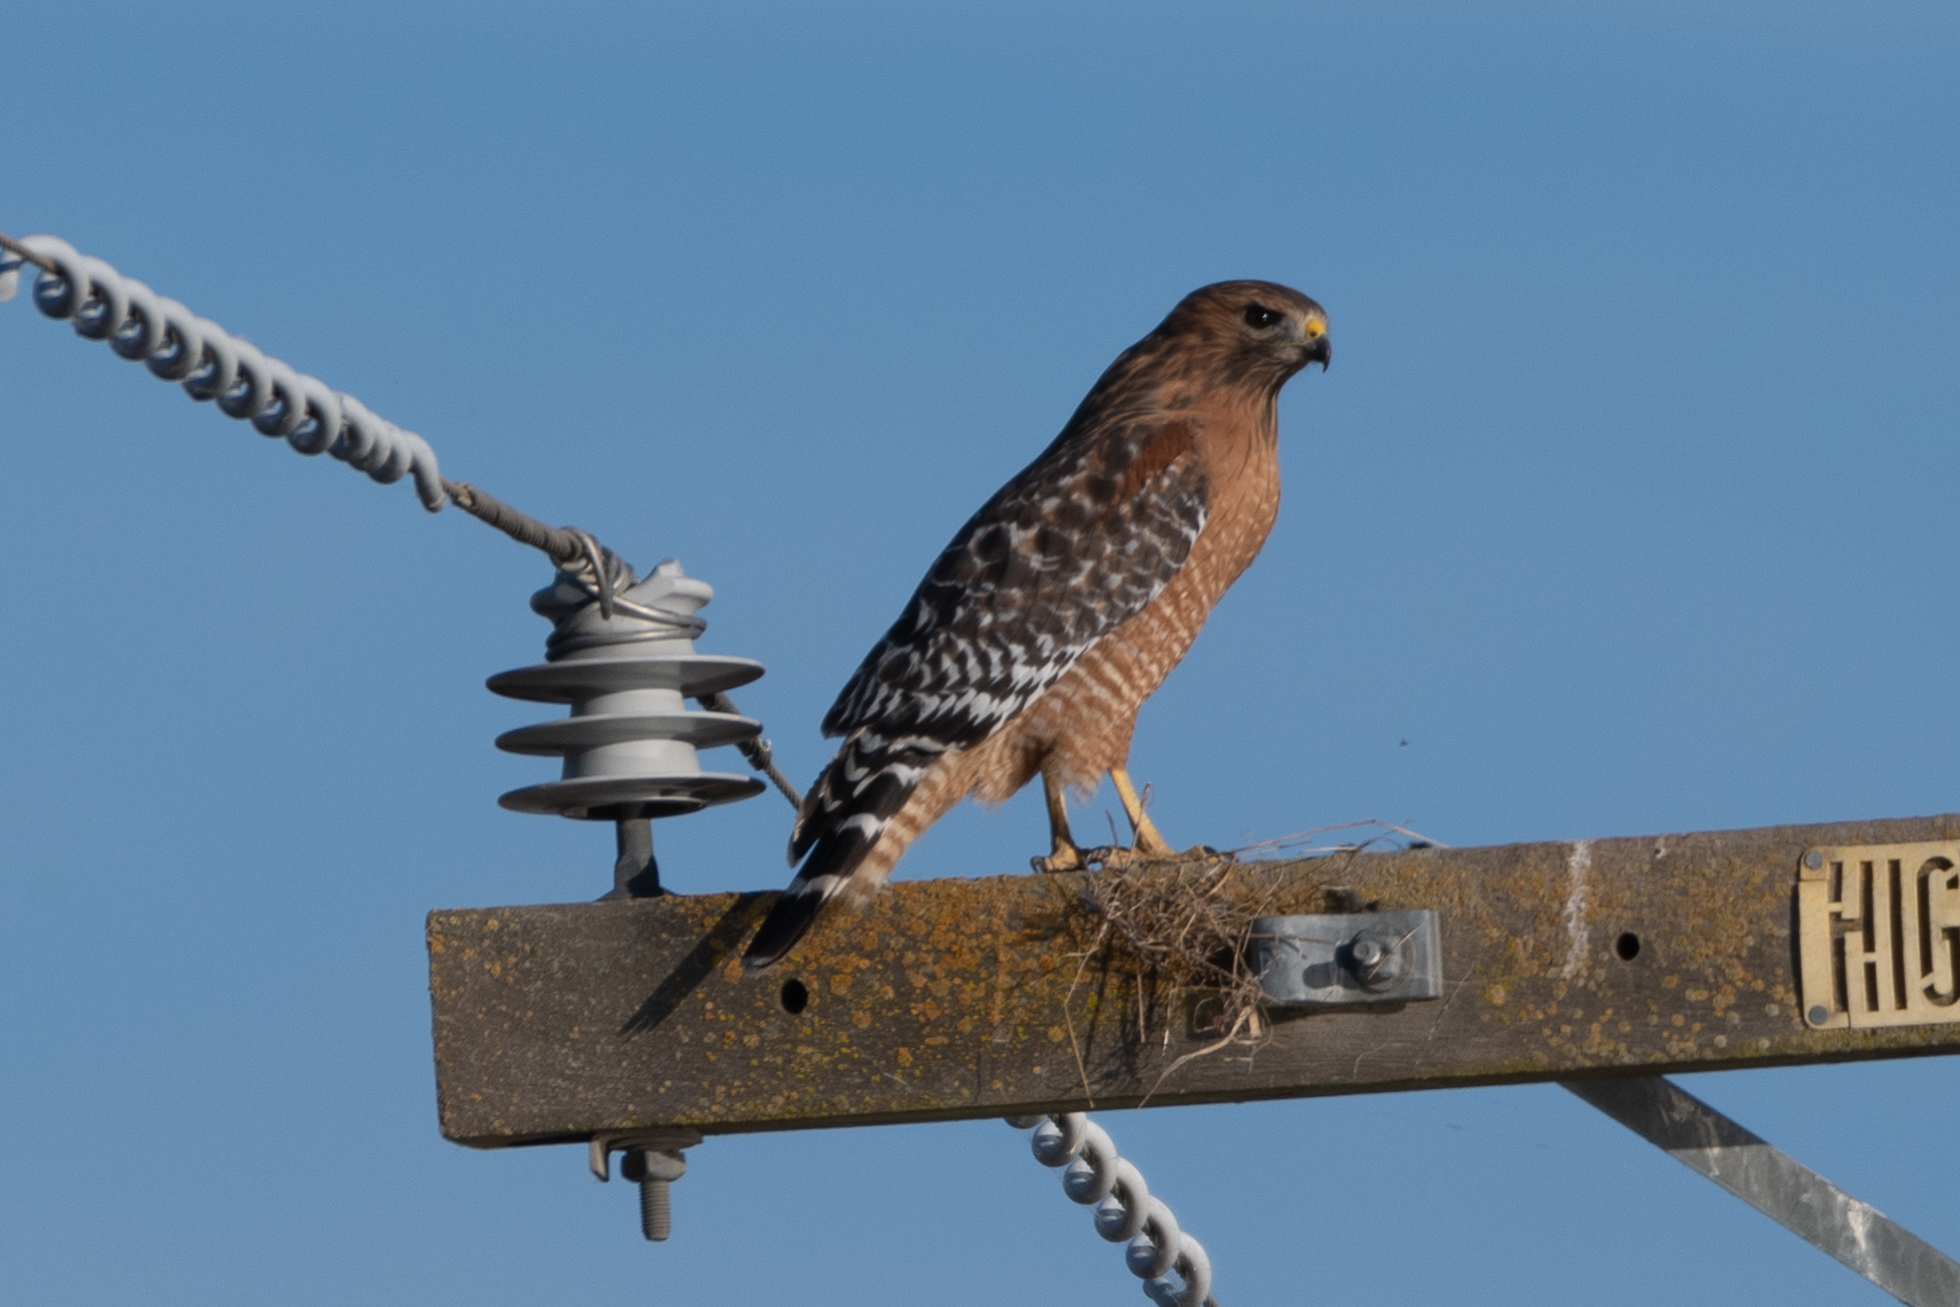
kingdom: Animalia
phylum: Chordata
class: Aves
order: Accipitriformes
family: Accipitridae
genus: Buteo
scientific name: Buteo lineatus
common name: Red-shouldered hawk
